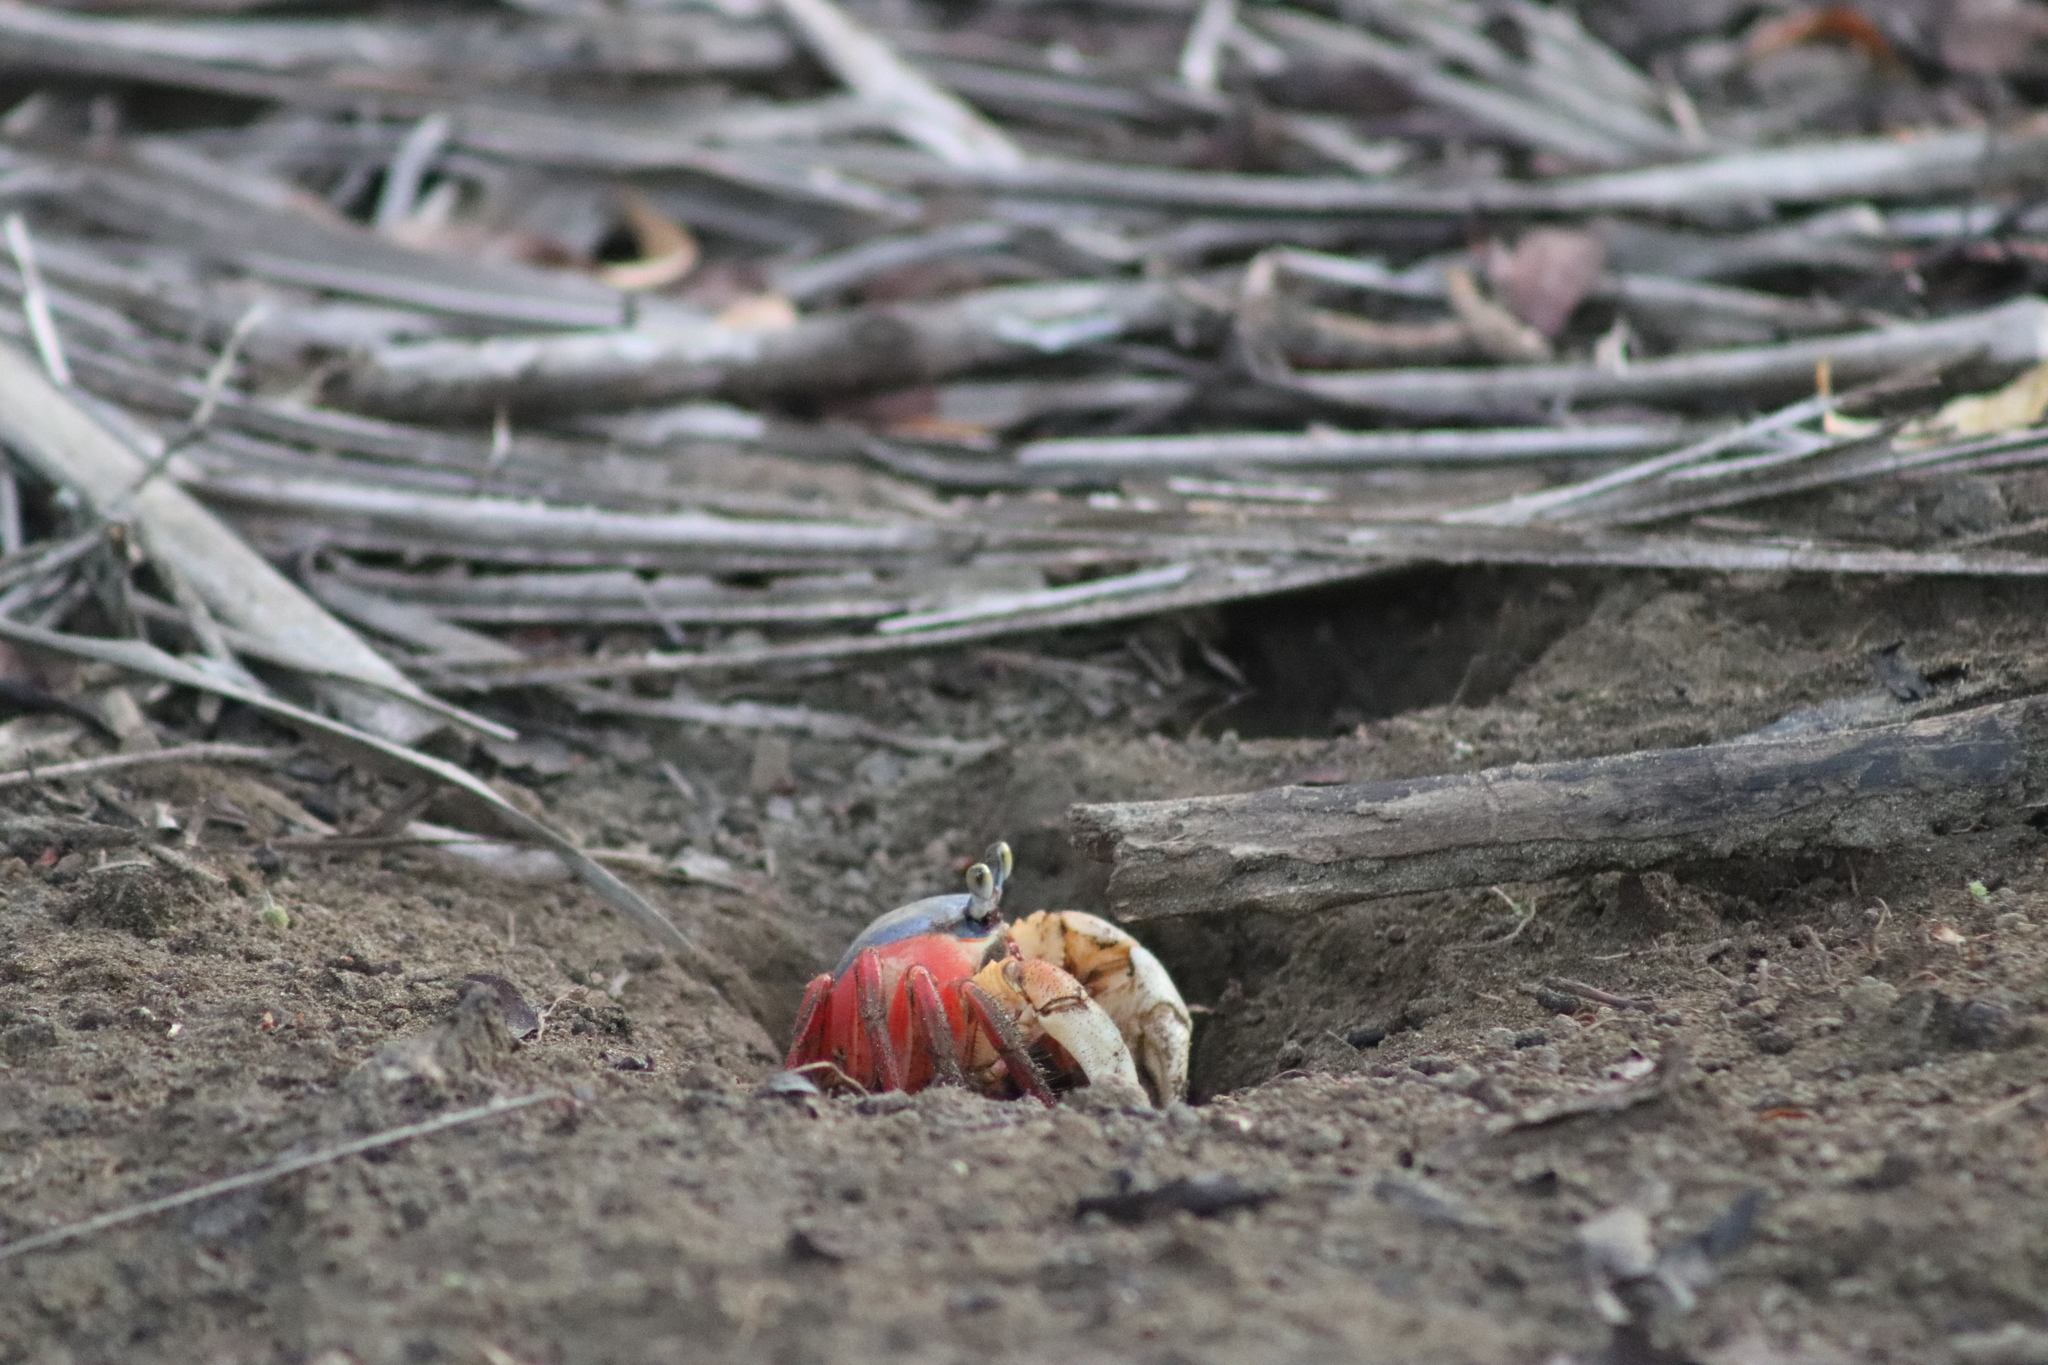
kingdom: Animalia
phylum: Arthropoda
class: Malacostraca
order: Decapoda
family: Gecarcinidae
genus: Cardisoma
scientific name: Cardisoma crassum
